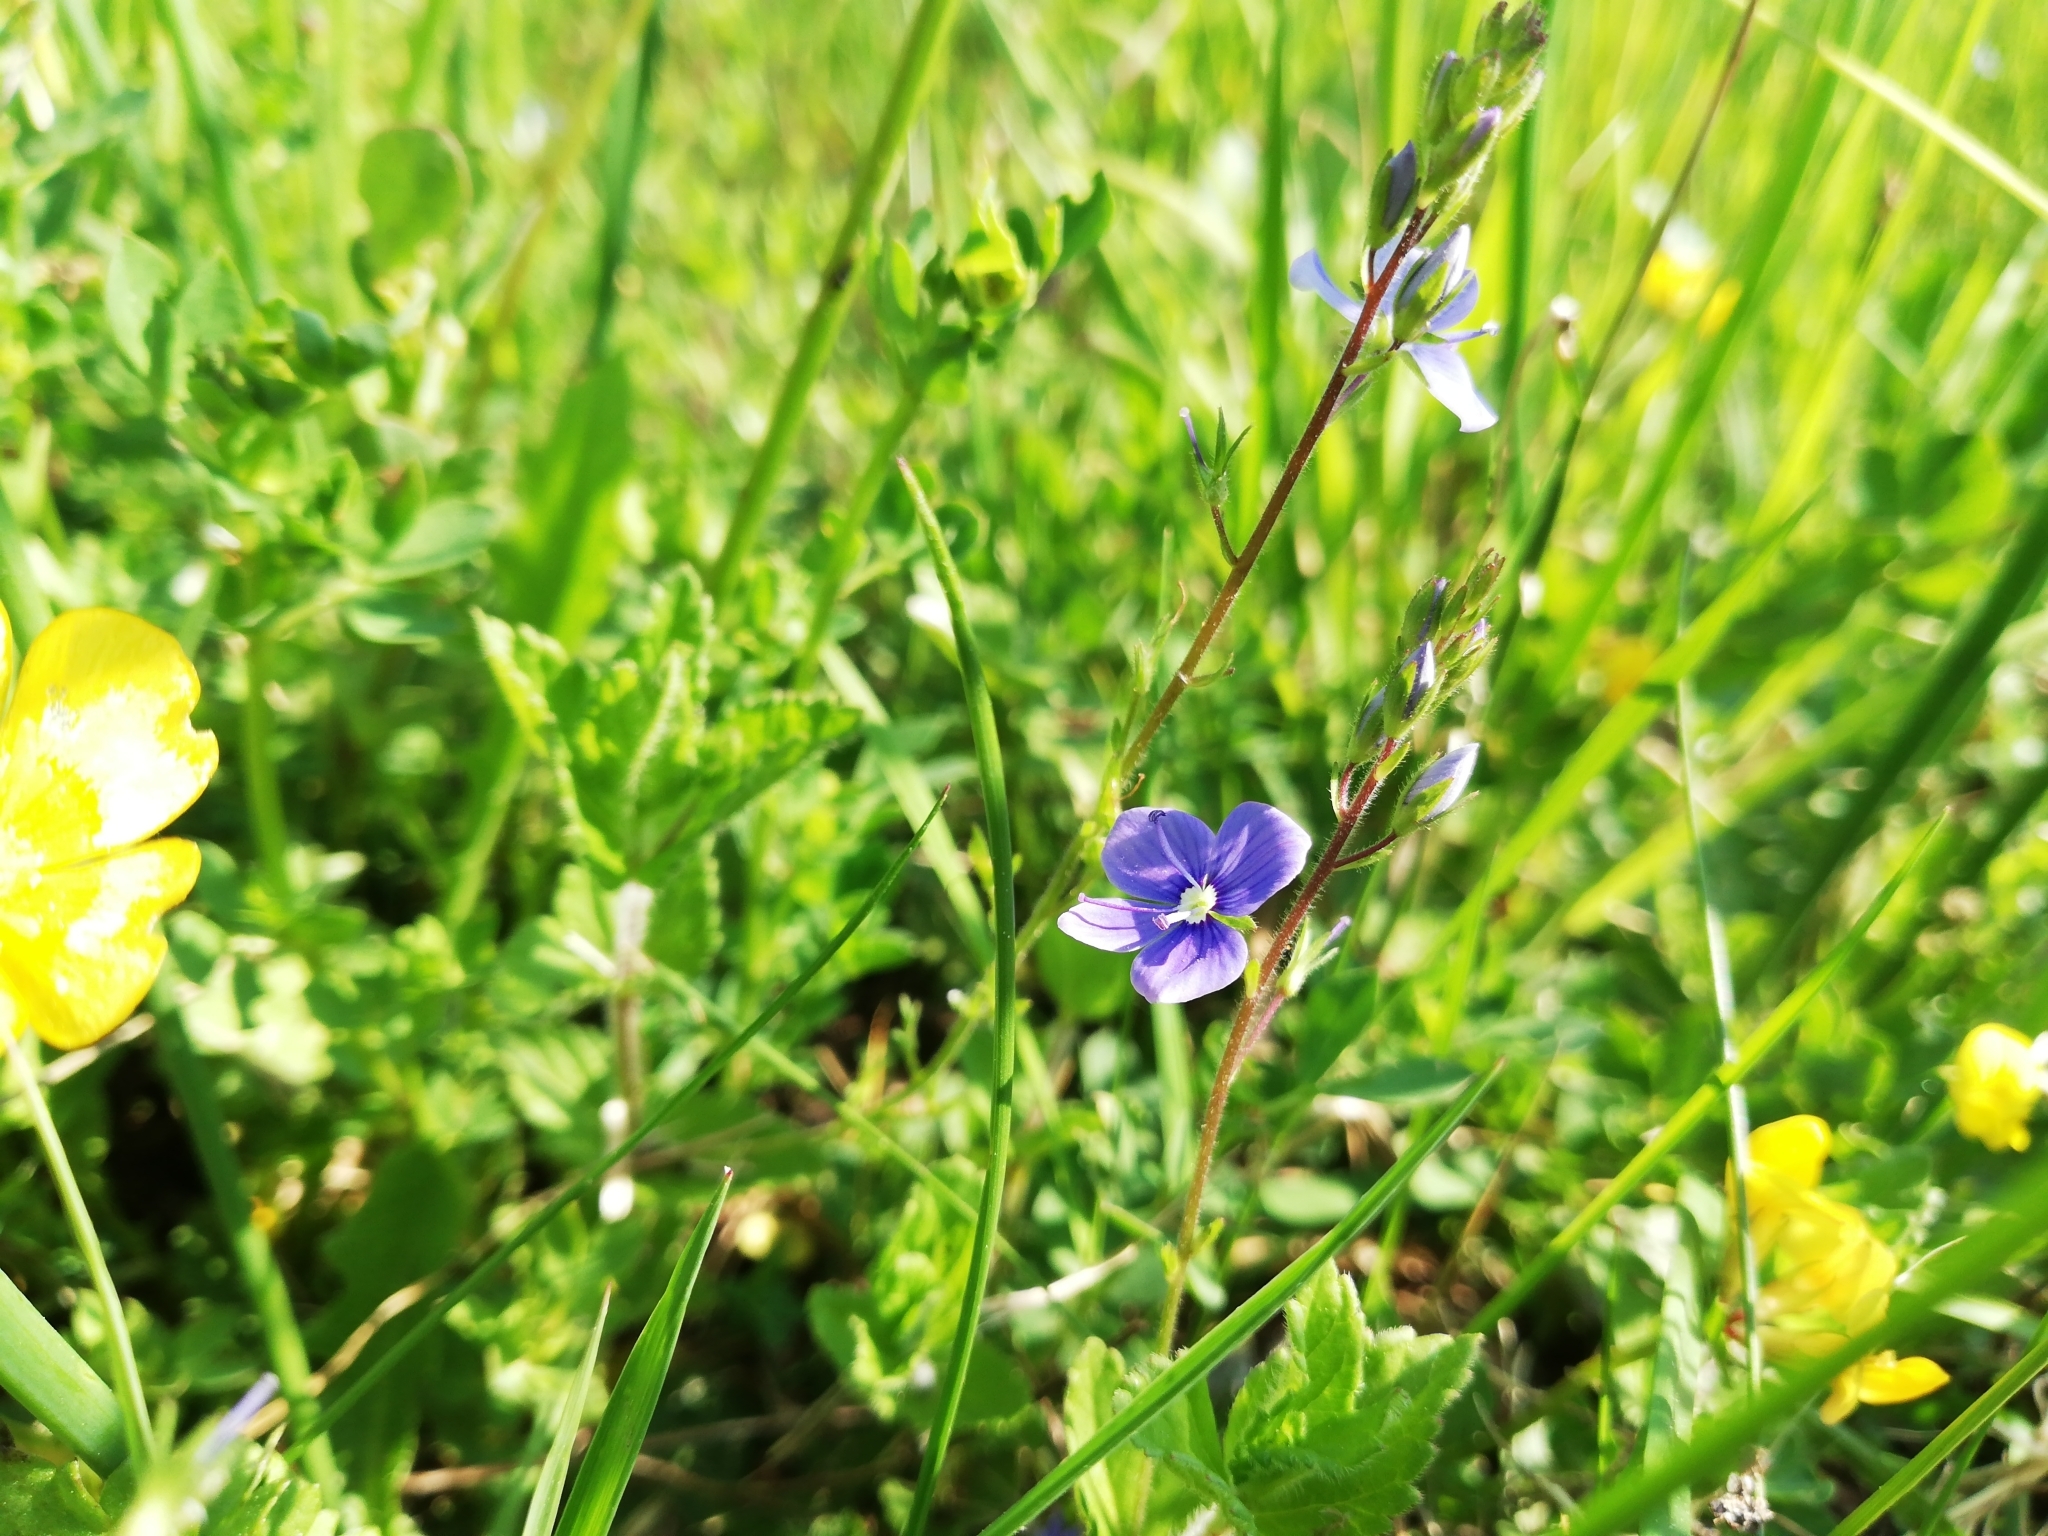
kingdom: Plantae
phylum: Tracheophyta
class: Magnoliopsida
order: Lamiales
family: Plantaginaceae
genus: Veronica
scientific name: Veronica chamaedrys
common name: Germander speedwell
